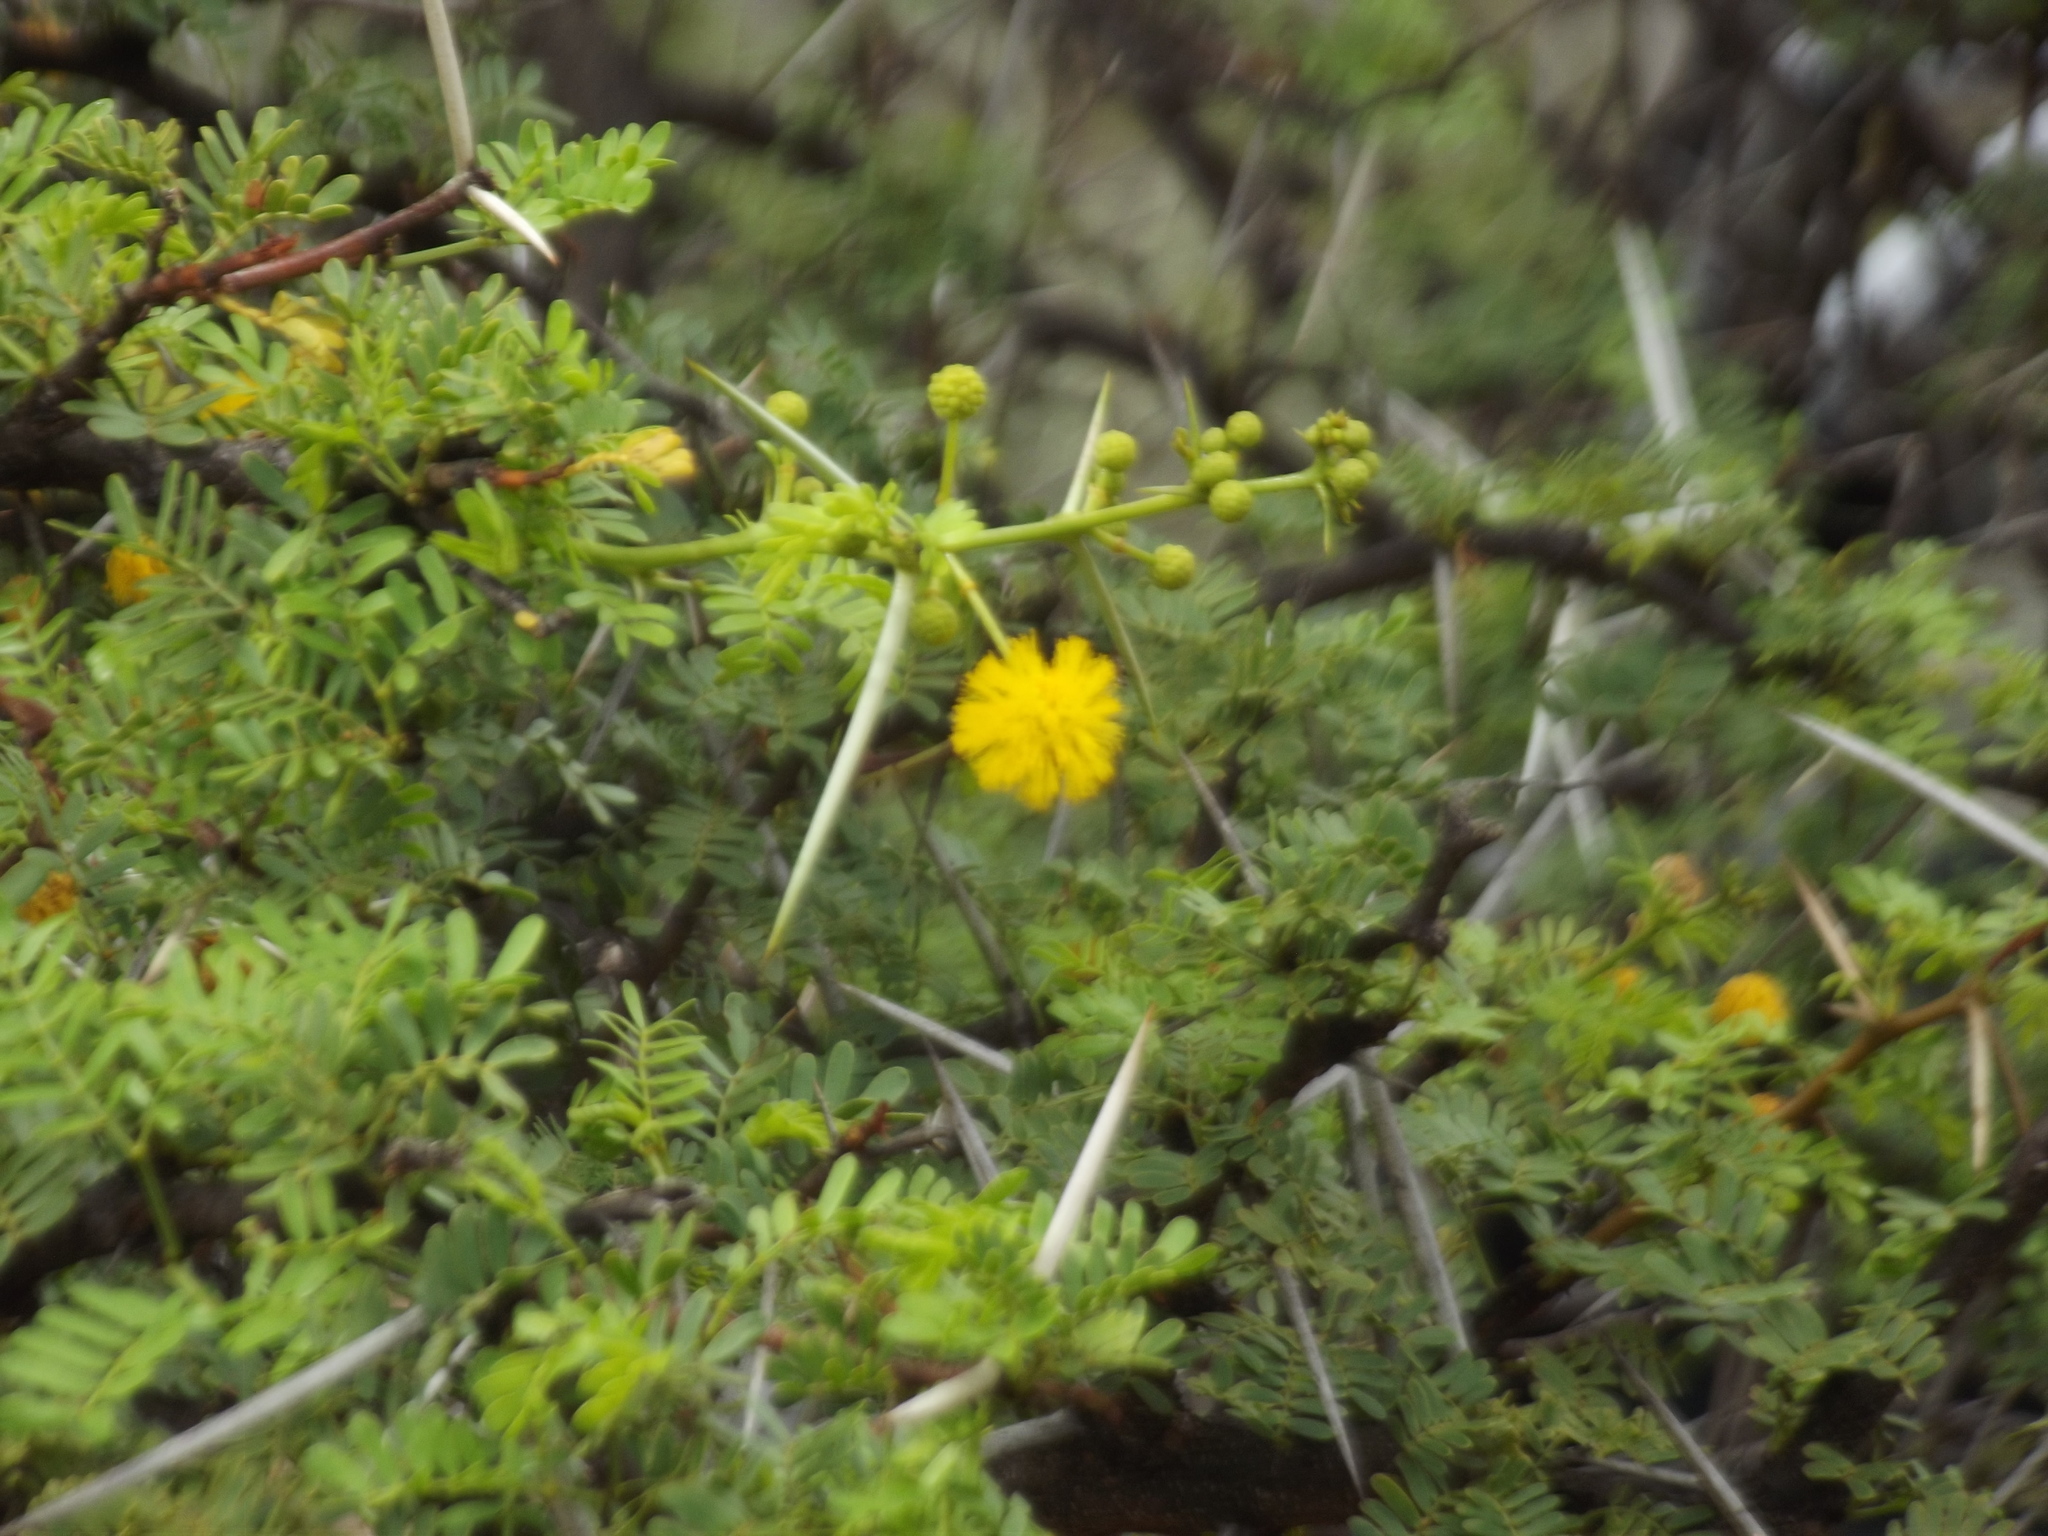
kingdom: Plantae
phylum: Tracheophyta
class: Magnoliopsida
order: Fabales
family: Fabaceae
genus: Vachellia
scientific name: Vachellia karroo
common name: Sweet thorn
